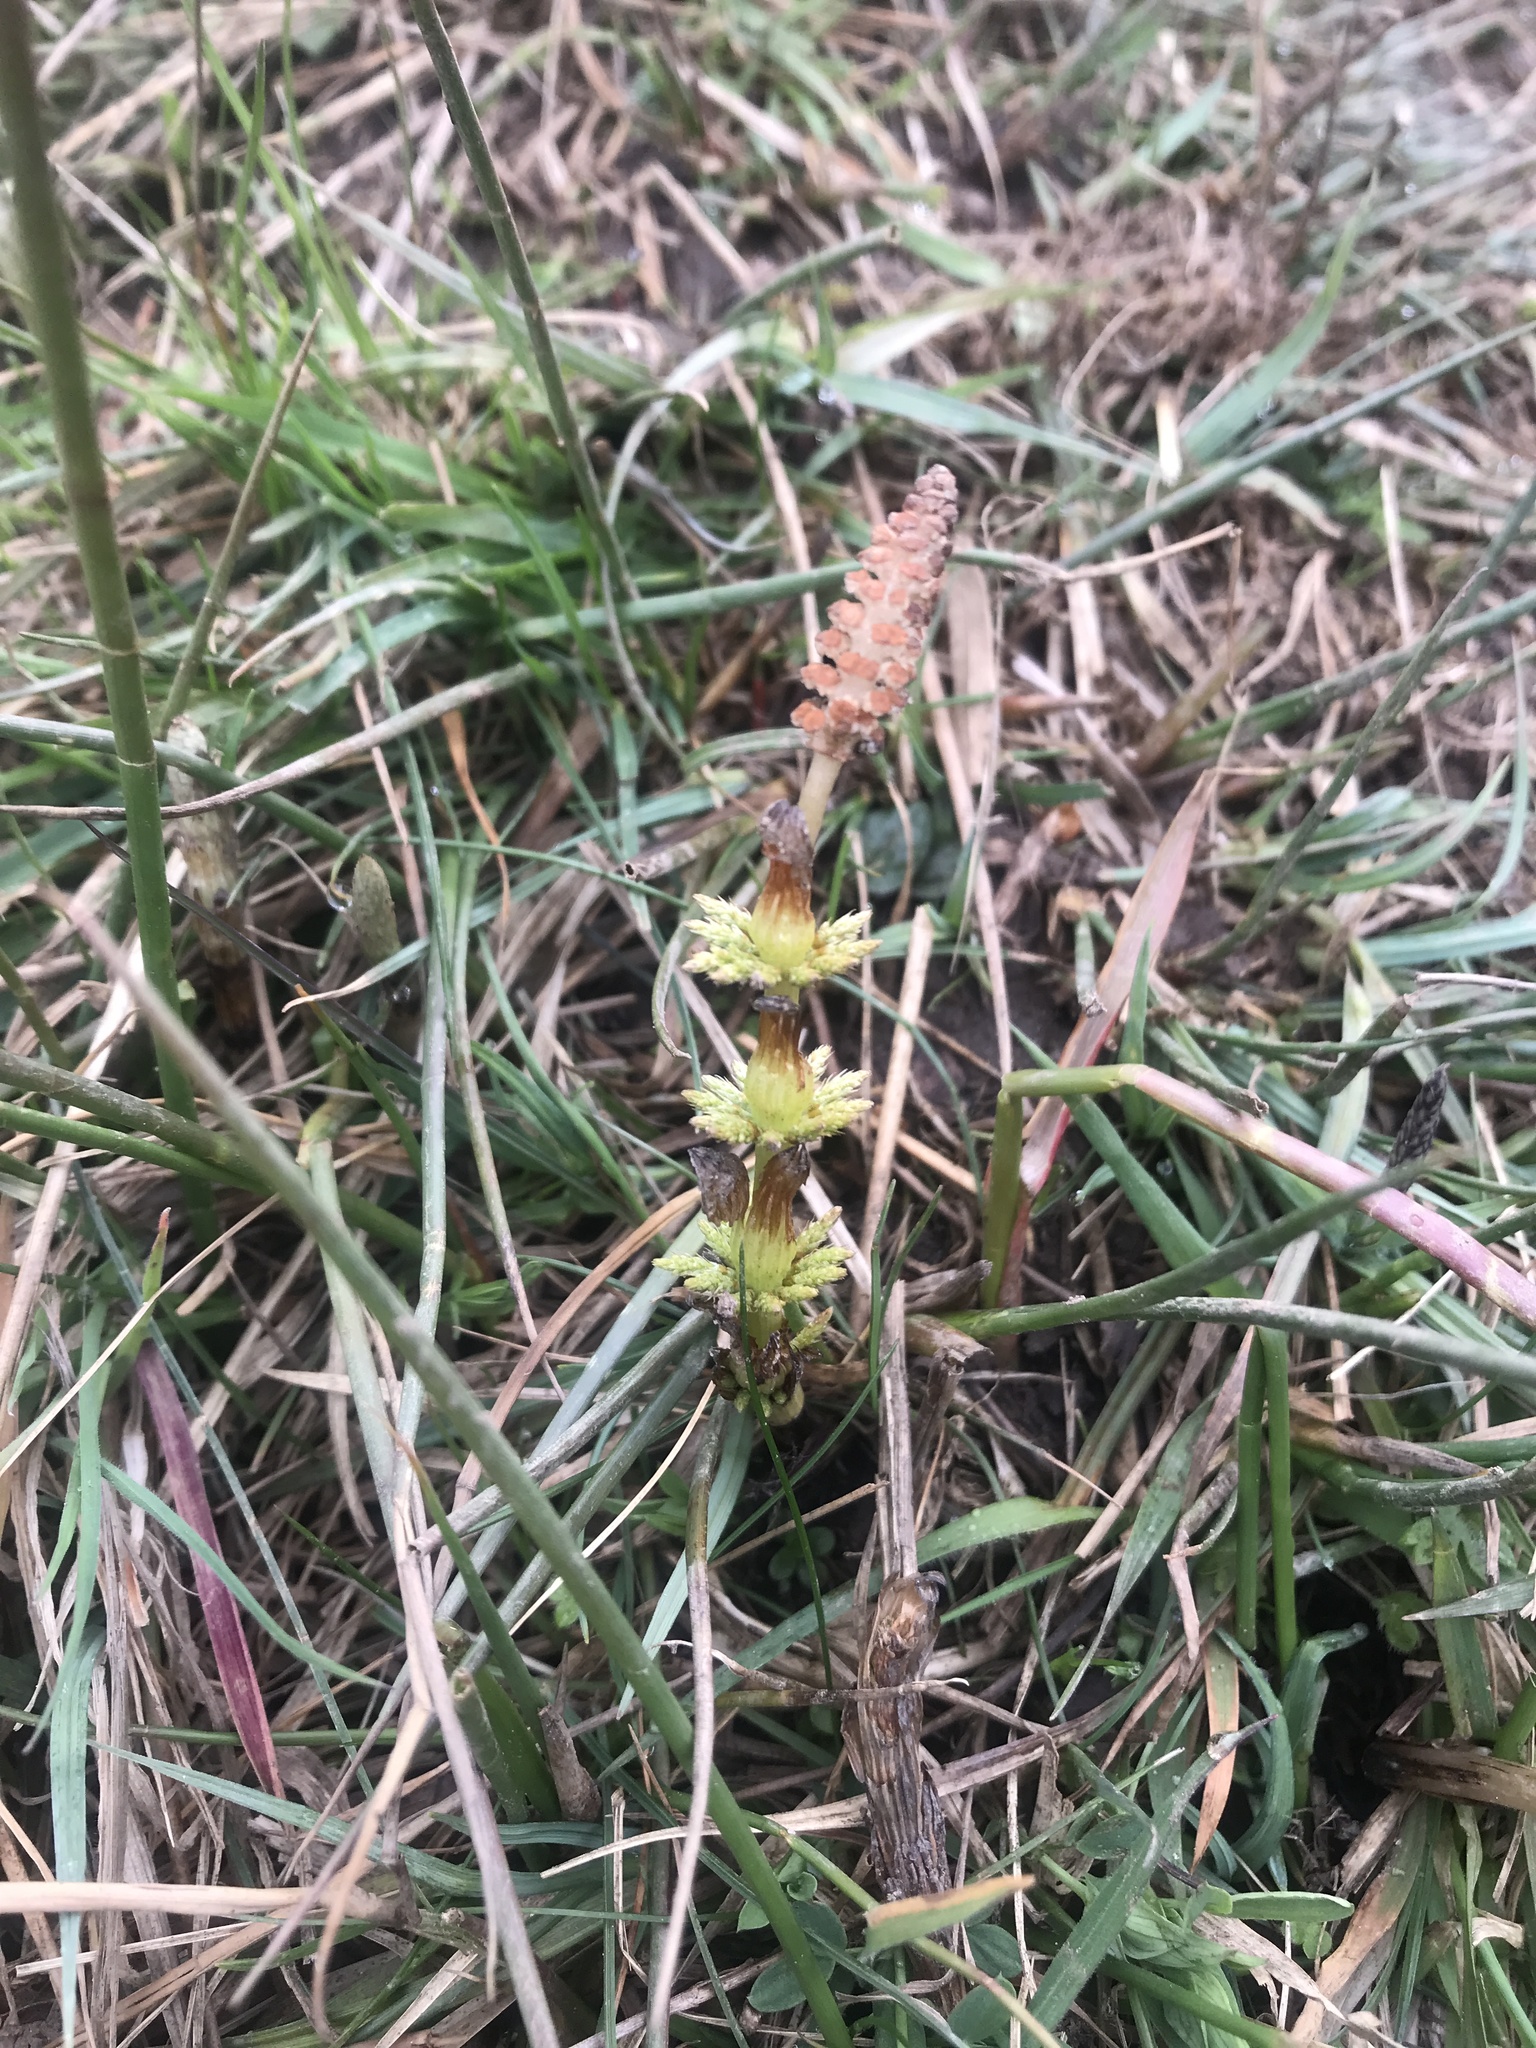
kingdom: Plantae
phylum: Tracheophyta
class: Polypodiopsida
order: Equisetales
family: Equisetaceae
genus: Equisetum
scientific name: Equisetum sylvaticum
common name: Wood horsetail
